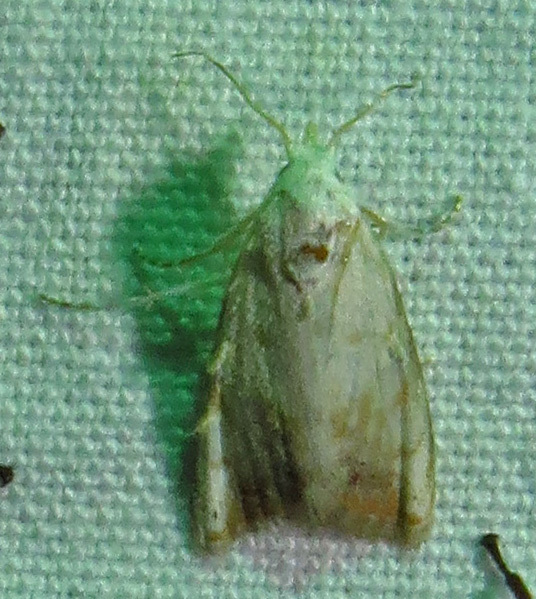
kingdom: Animalia
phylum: Arthropoda
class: Insecta
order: Lepidoptera
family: Nolidae
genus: Nola
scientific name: Nola cereella
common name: Sorghum webworm moth
